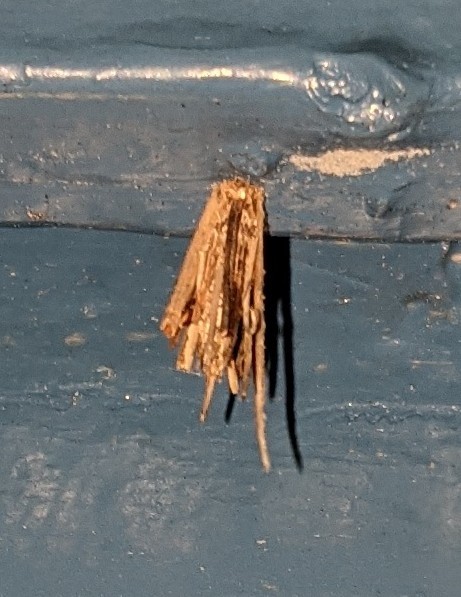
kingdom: Animalia
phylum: Arthropoda
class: Insecta
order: Lepidoptera
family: Psychidae
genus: Psyche
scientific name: Psyche casta
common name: Common sweep
